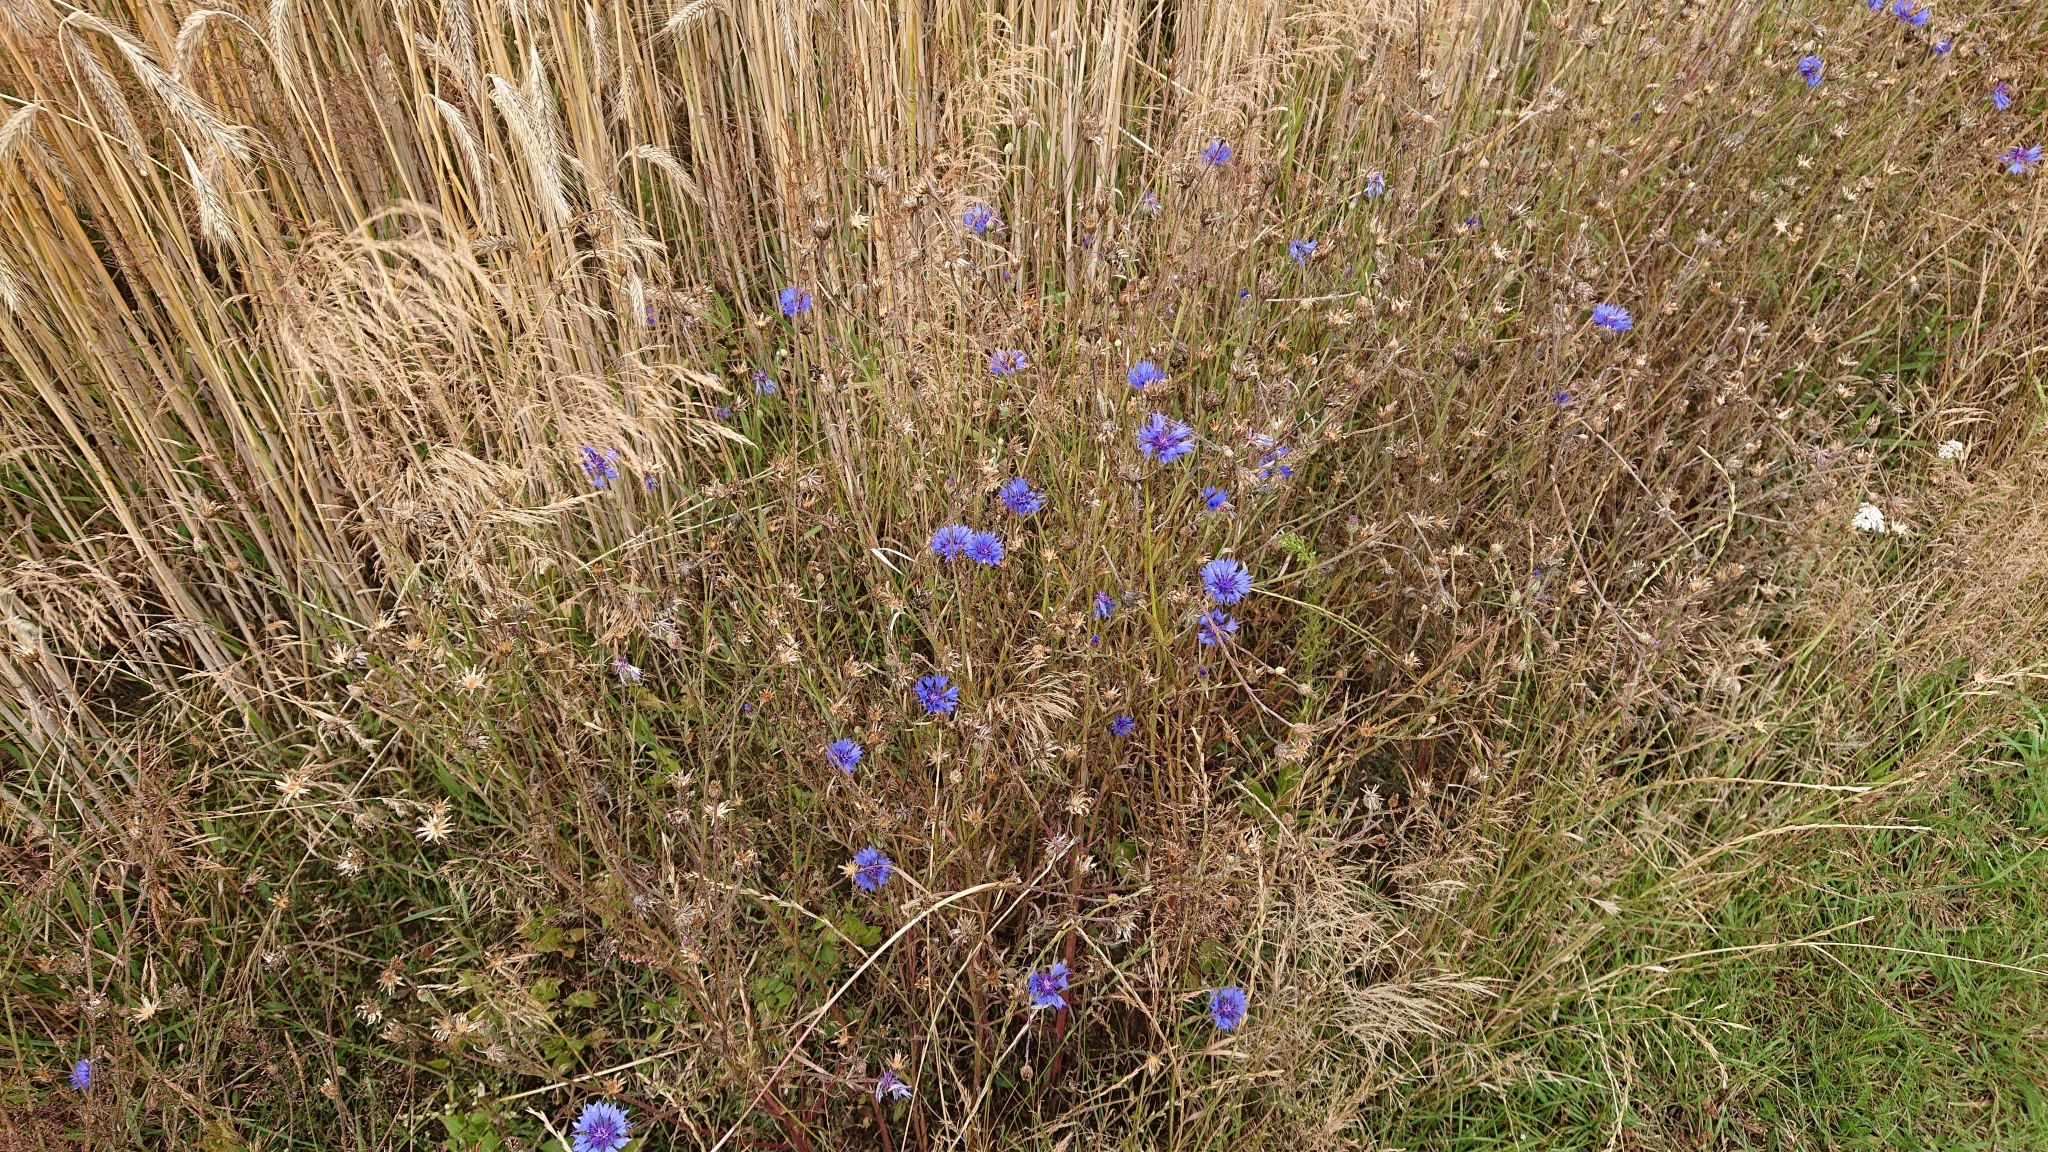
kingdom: Plantae
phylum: Tracheophyta
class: Magnoliopsida
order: Asterales
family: Asteraceae
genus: Centaurea
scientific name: Centaurea cyanus
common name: Cornflower
